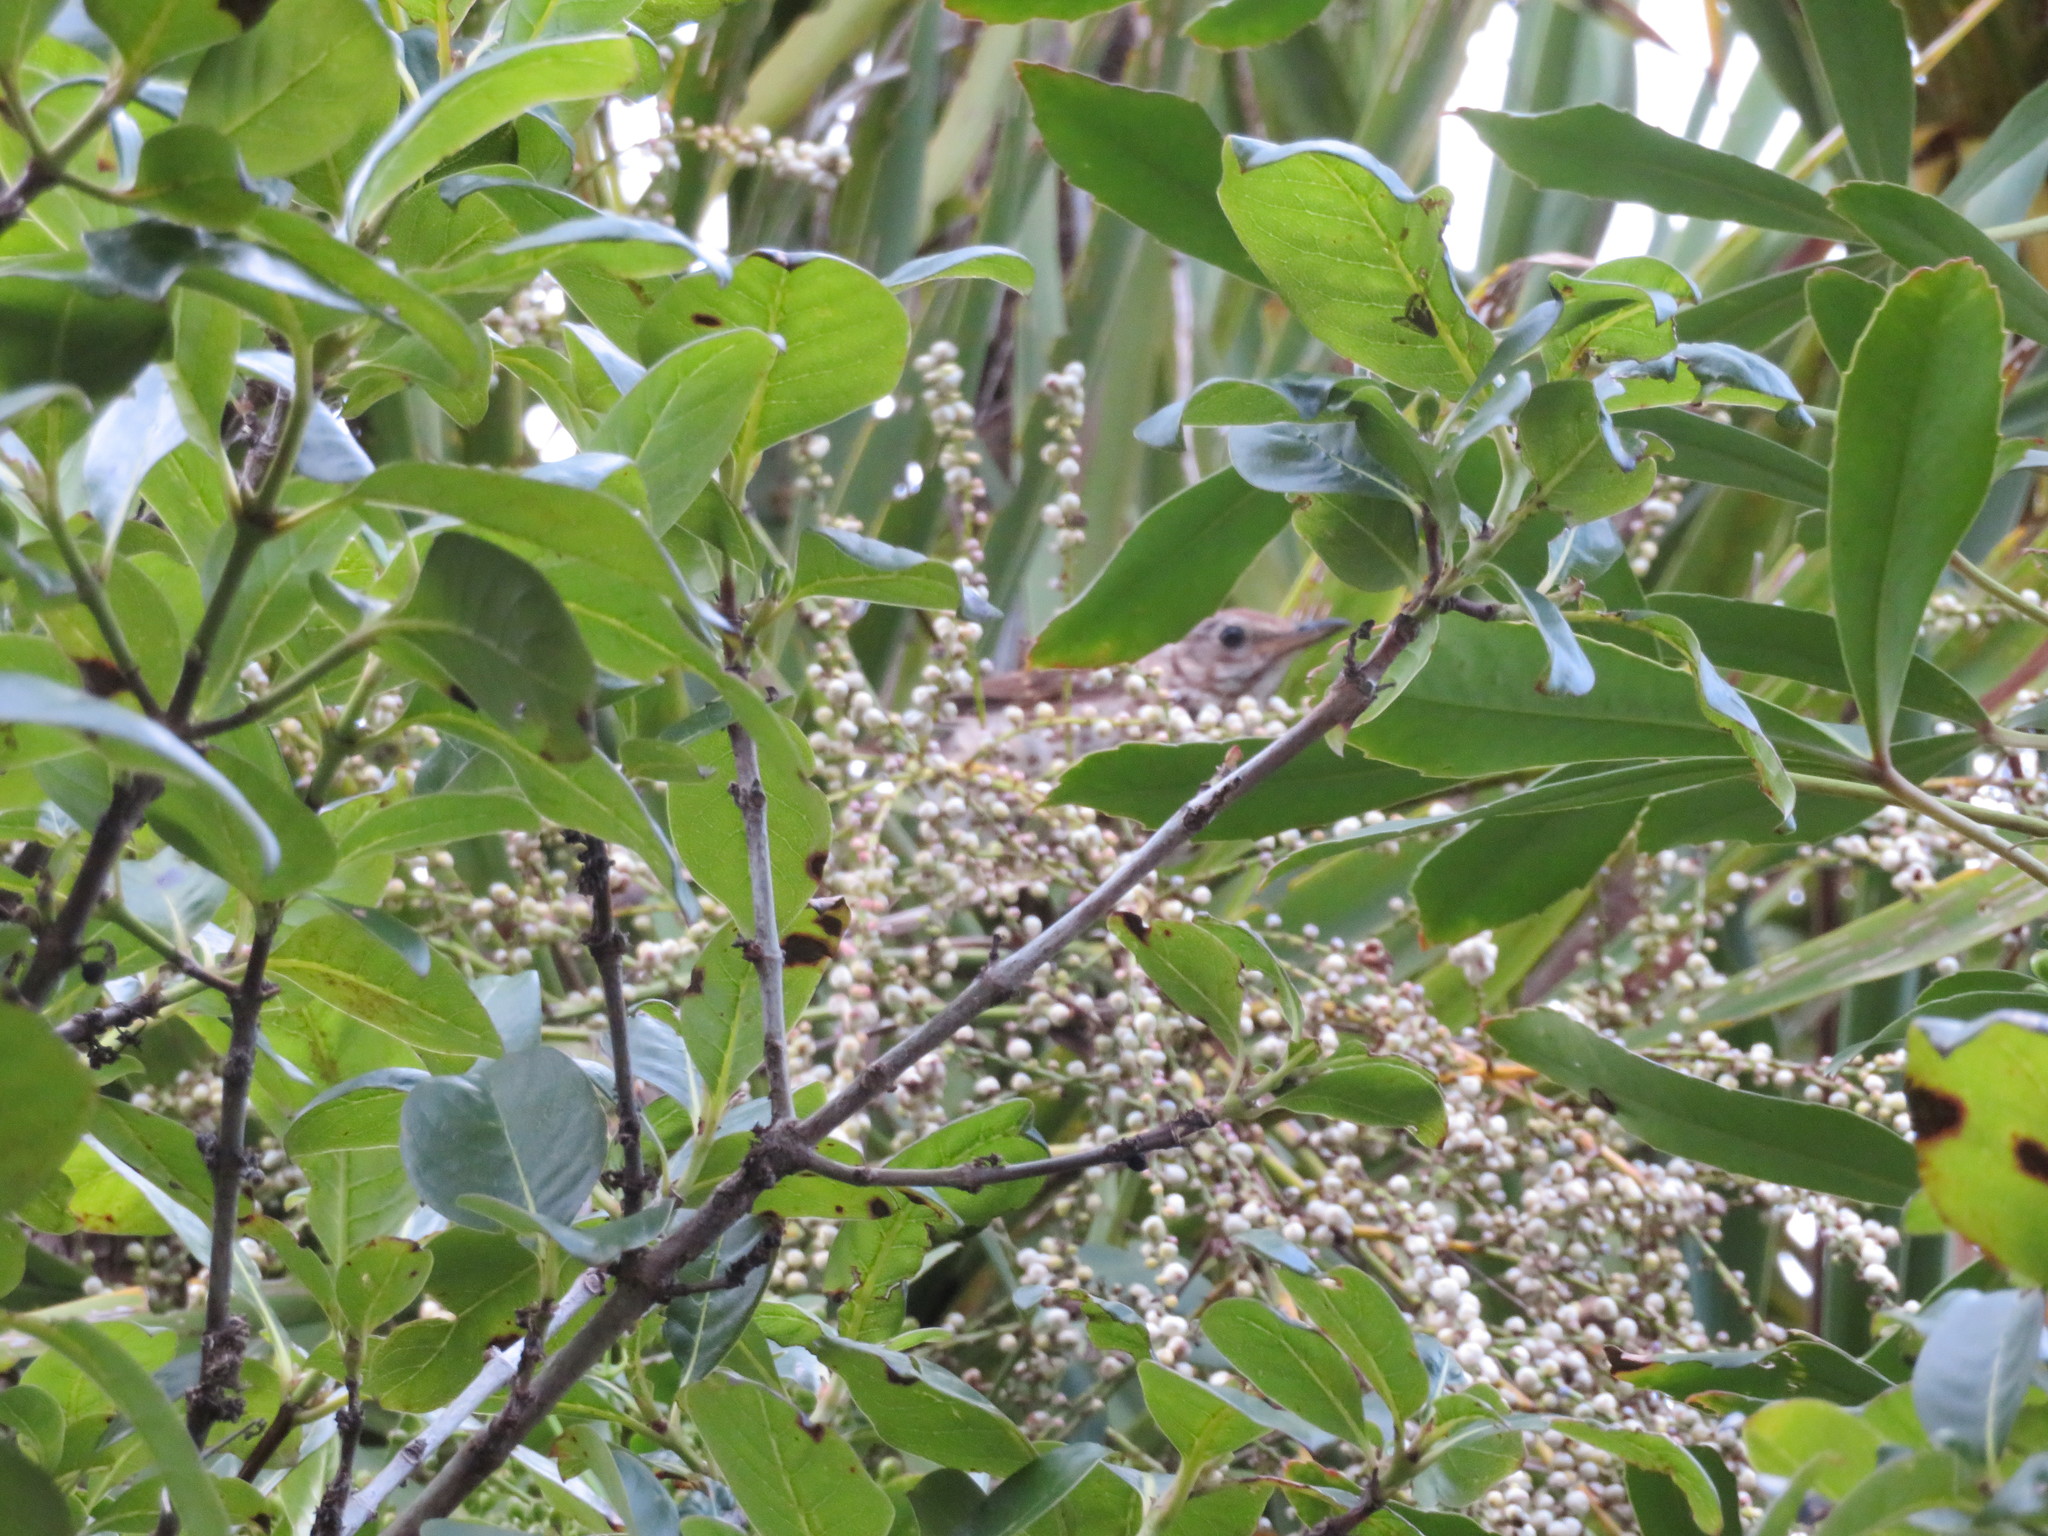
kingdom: Animalia
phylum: Chordata
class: Aves
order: Passeriformes
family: Turdidae
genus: Turdus
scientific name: Turdus philomelos
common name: Song thrush
